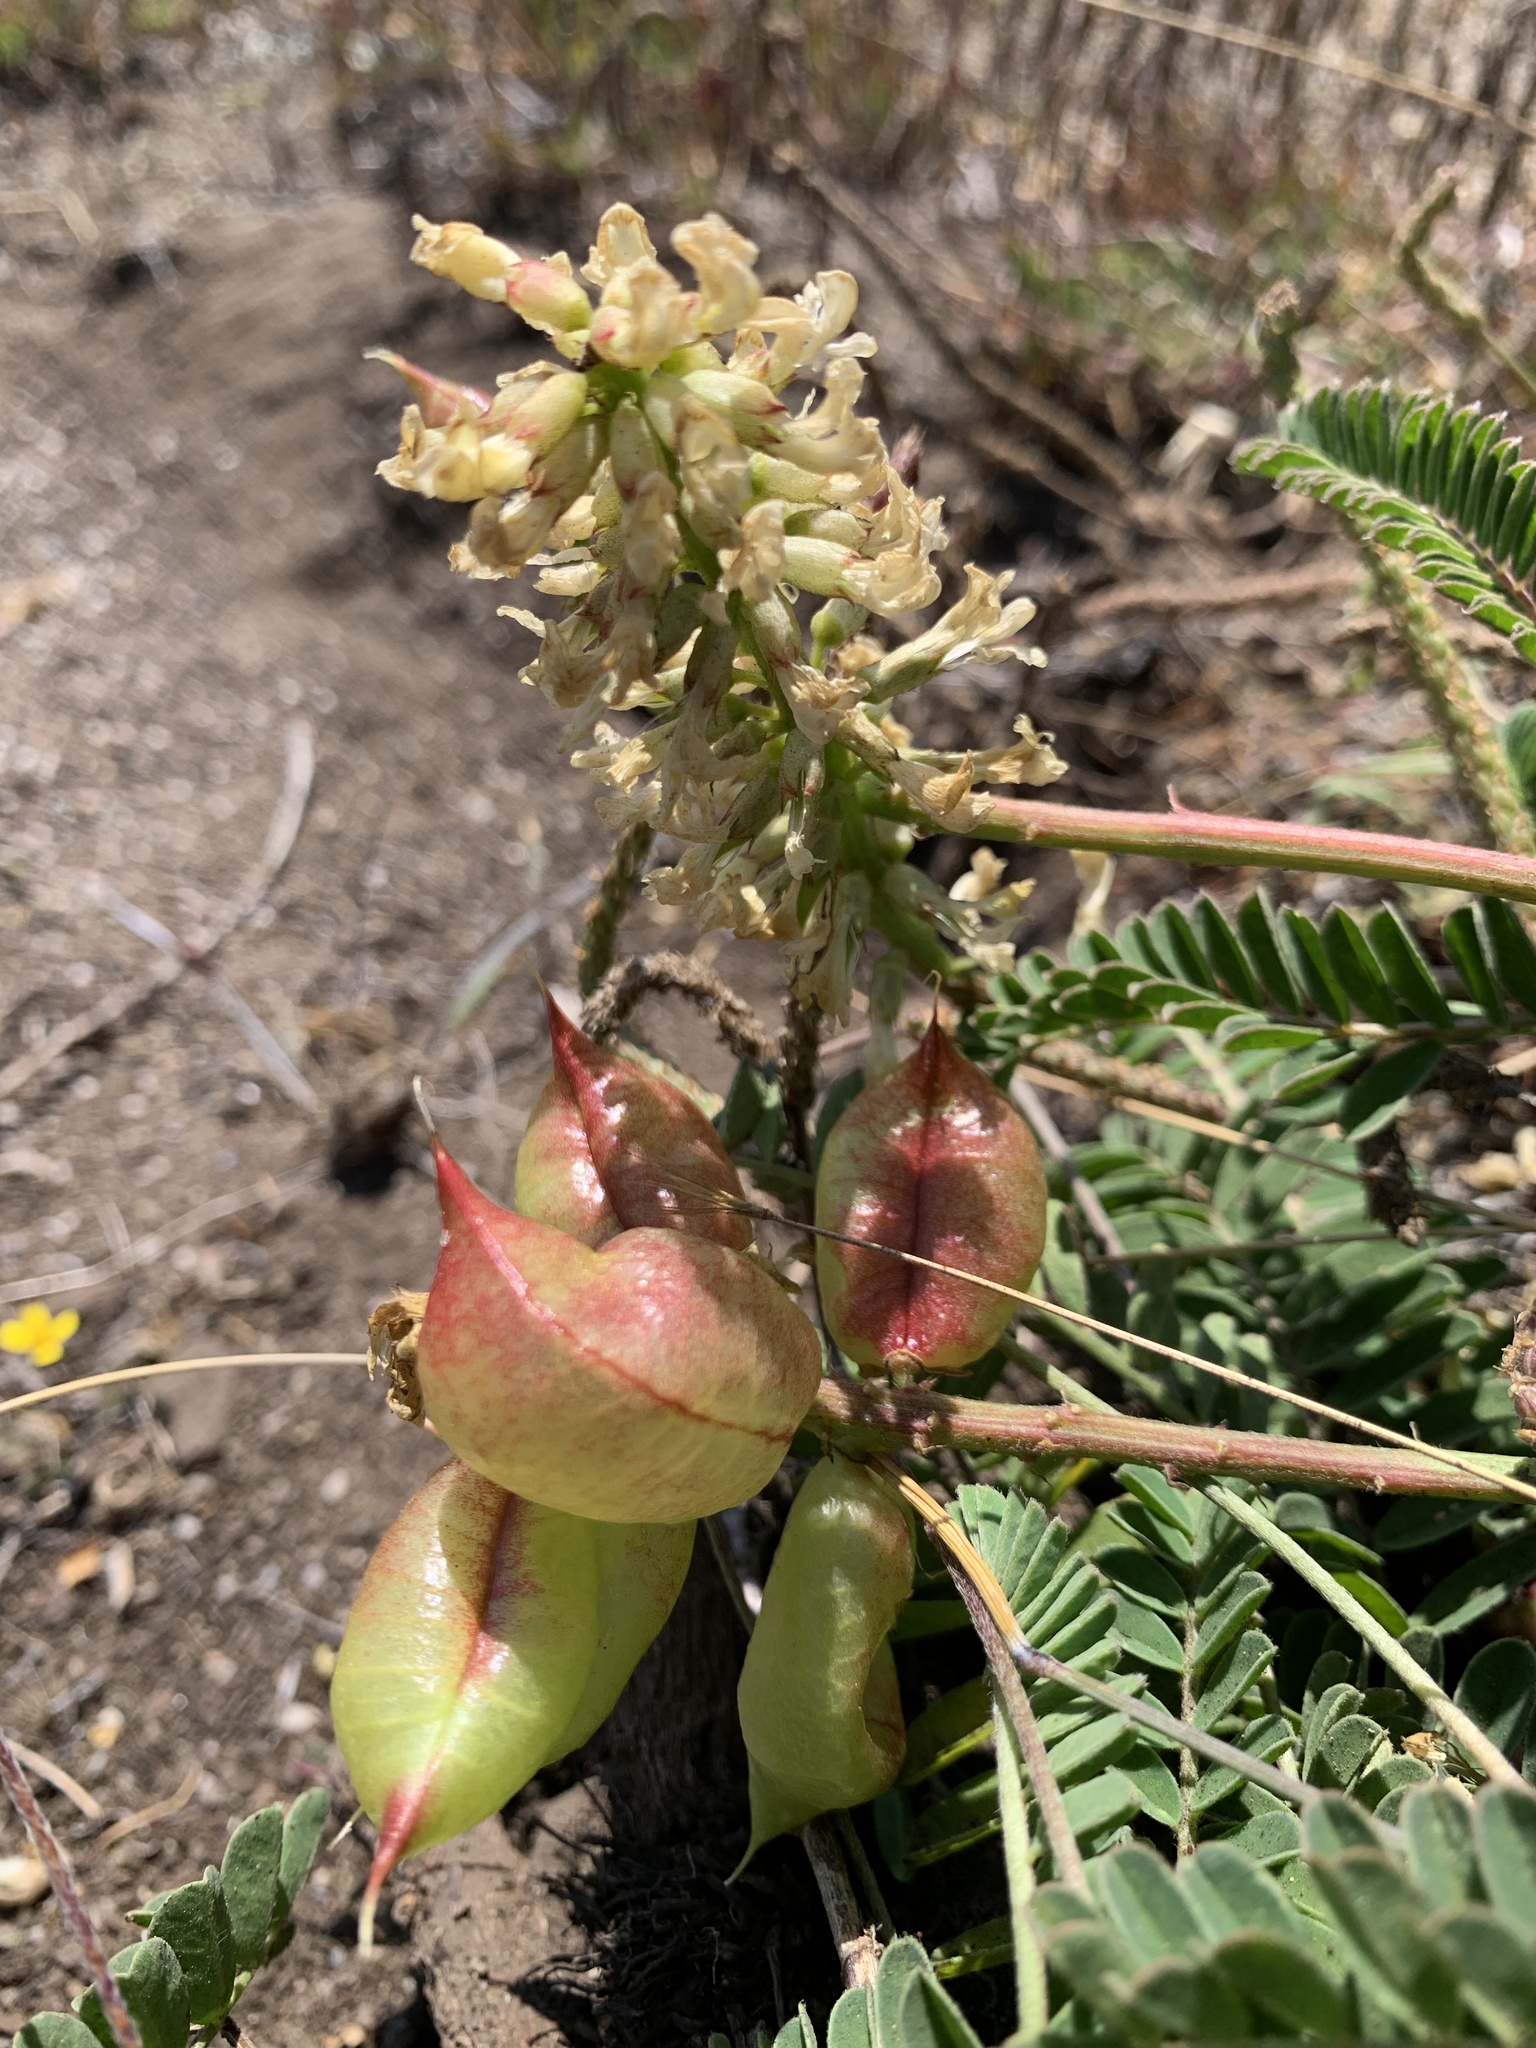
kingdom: Plantae
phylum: Tracheophyta
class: Magnoliopsida
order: Fabales
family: Fabaceae
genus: Astragalus
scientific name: Astragalus nuttallii
